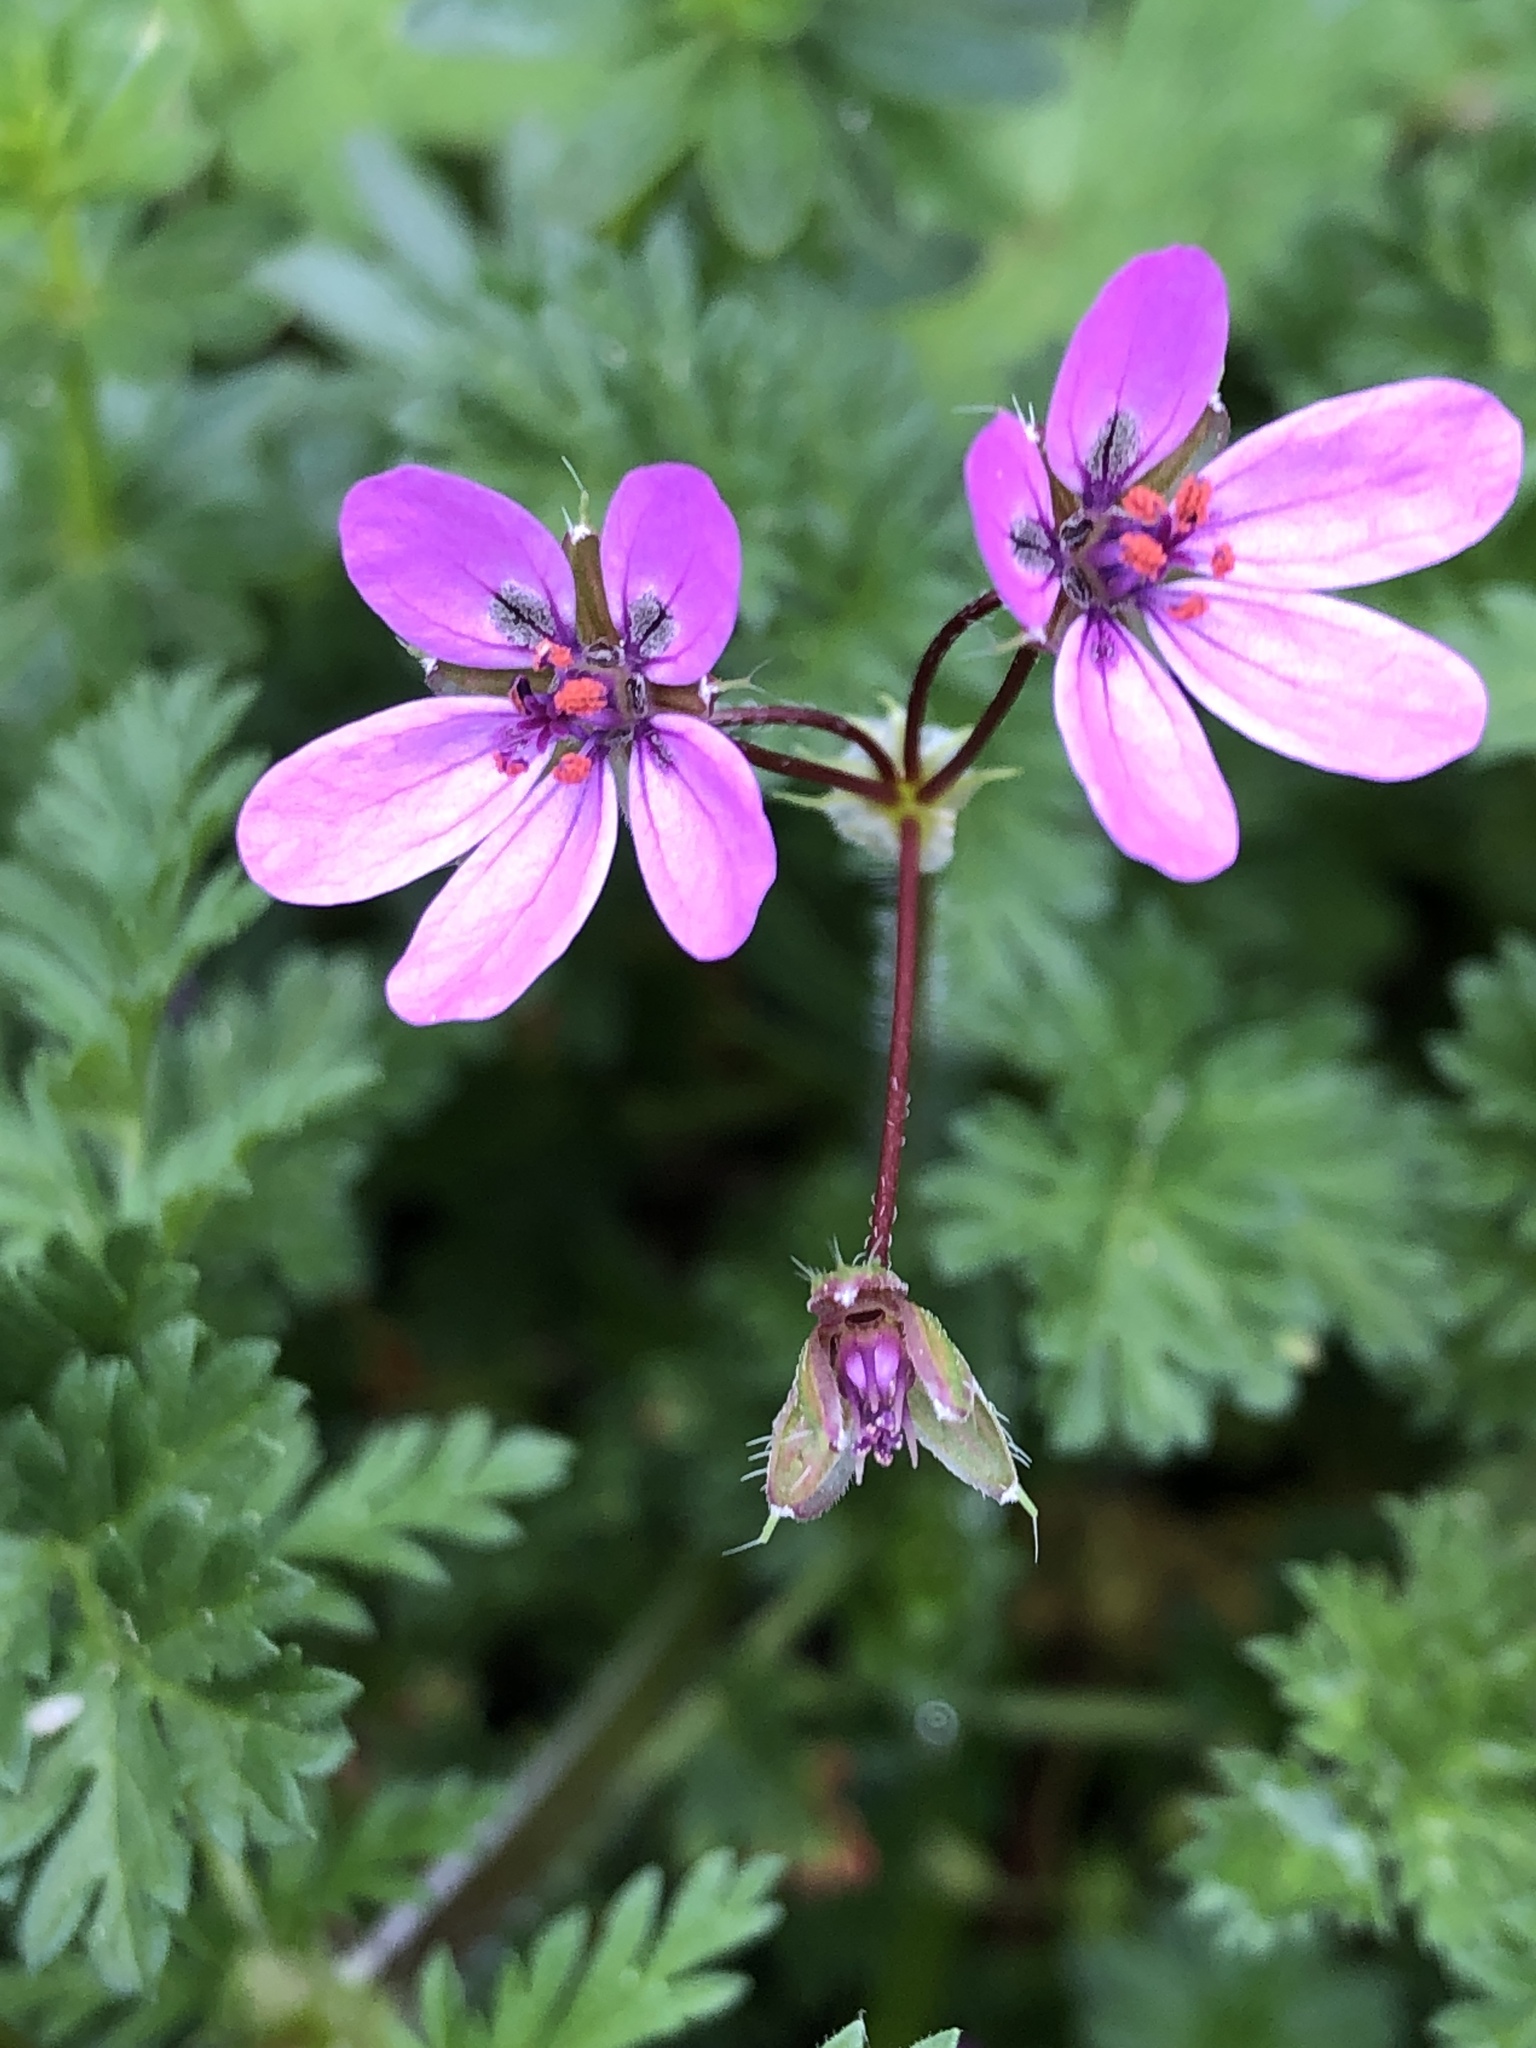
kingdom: Plantae
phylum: Tracheophyta
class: Magnoliopsida
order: Geraniales
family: Geraniaceae
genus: Erodium
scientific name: Erodium cicutarium
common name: Common stork's-bill
